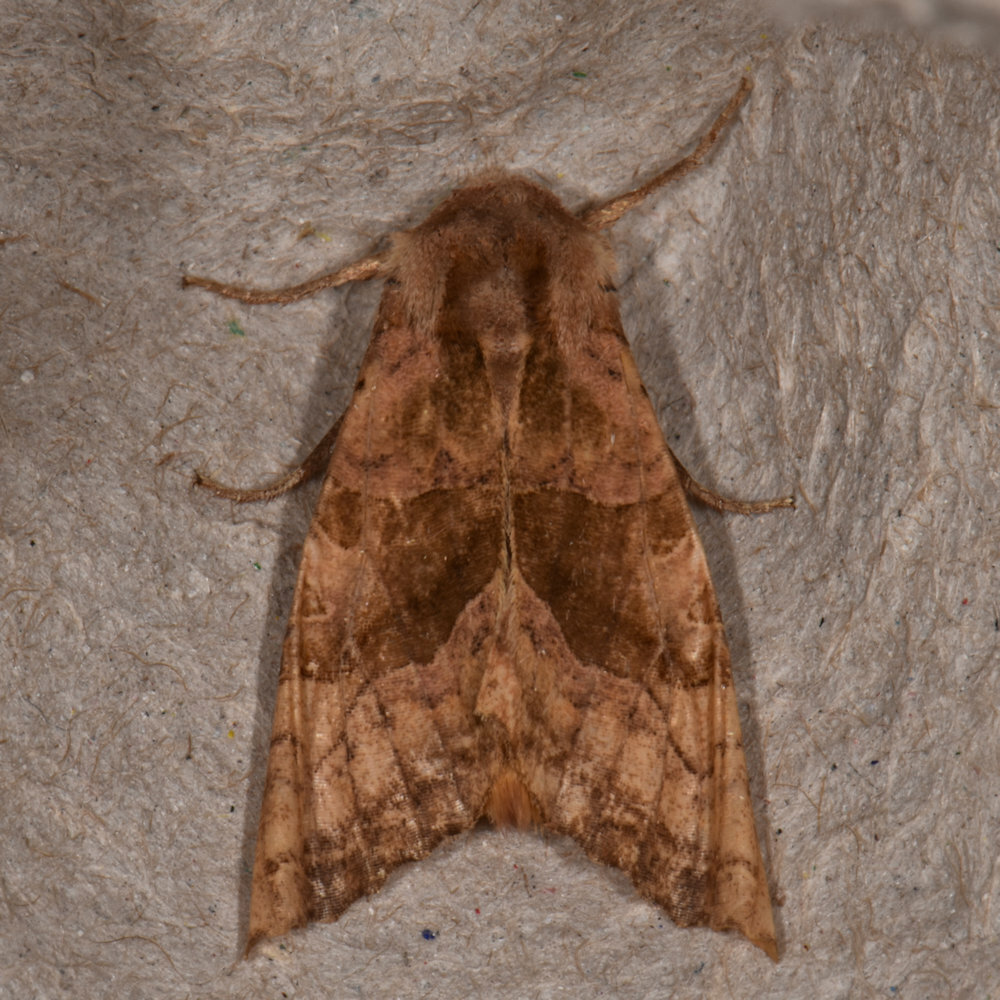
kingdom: Animalia
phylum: Arthropoda
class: Insecta
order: Lepidoptera
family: Noctuidae
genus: Phlogophora
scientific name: Phlogophora periculosa
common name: Brown angle shades
